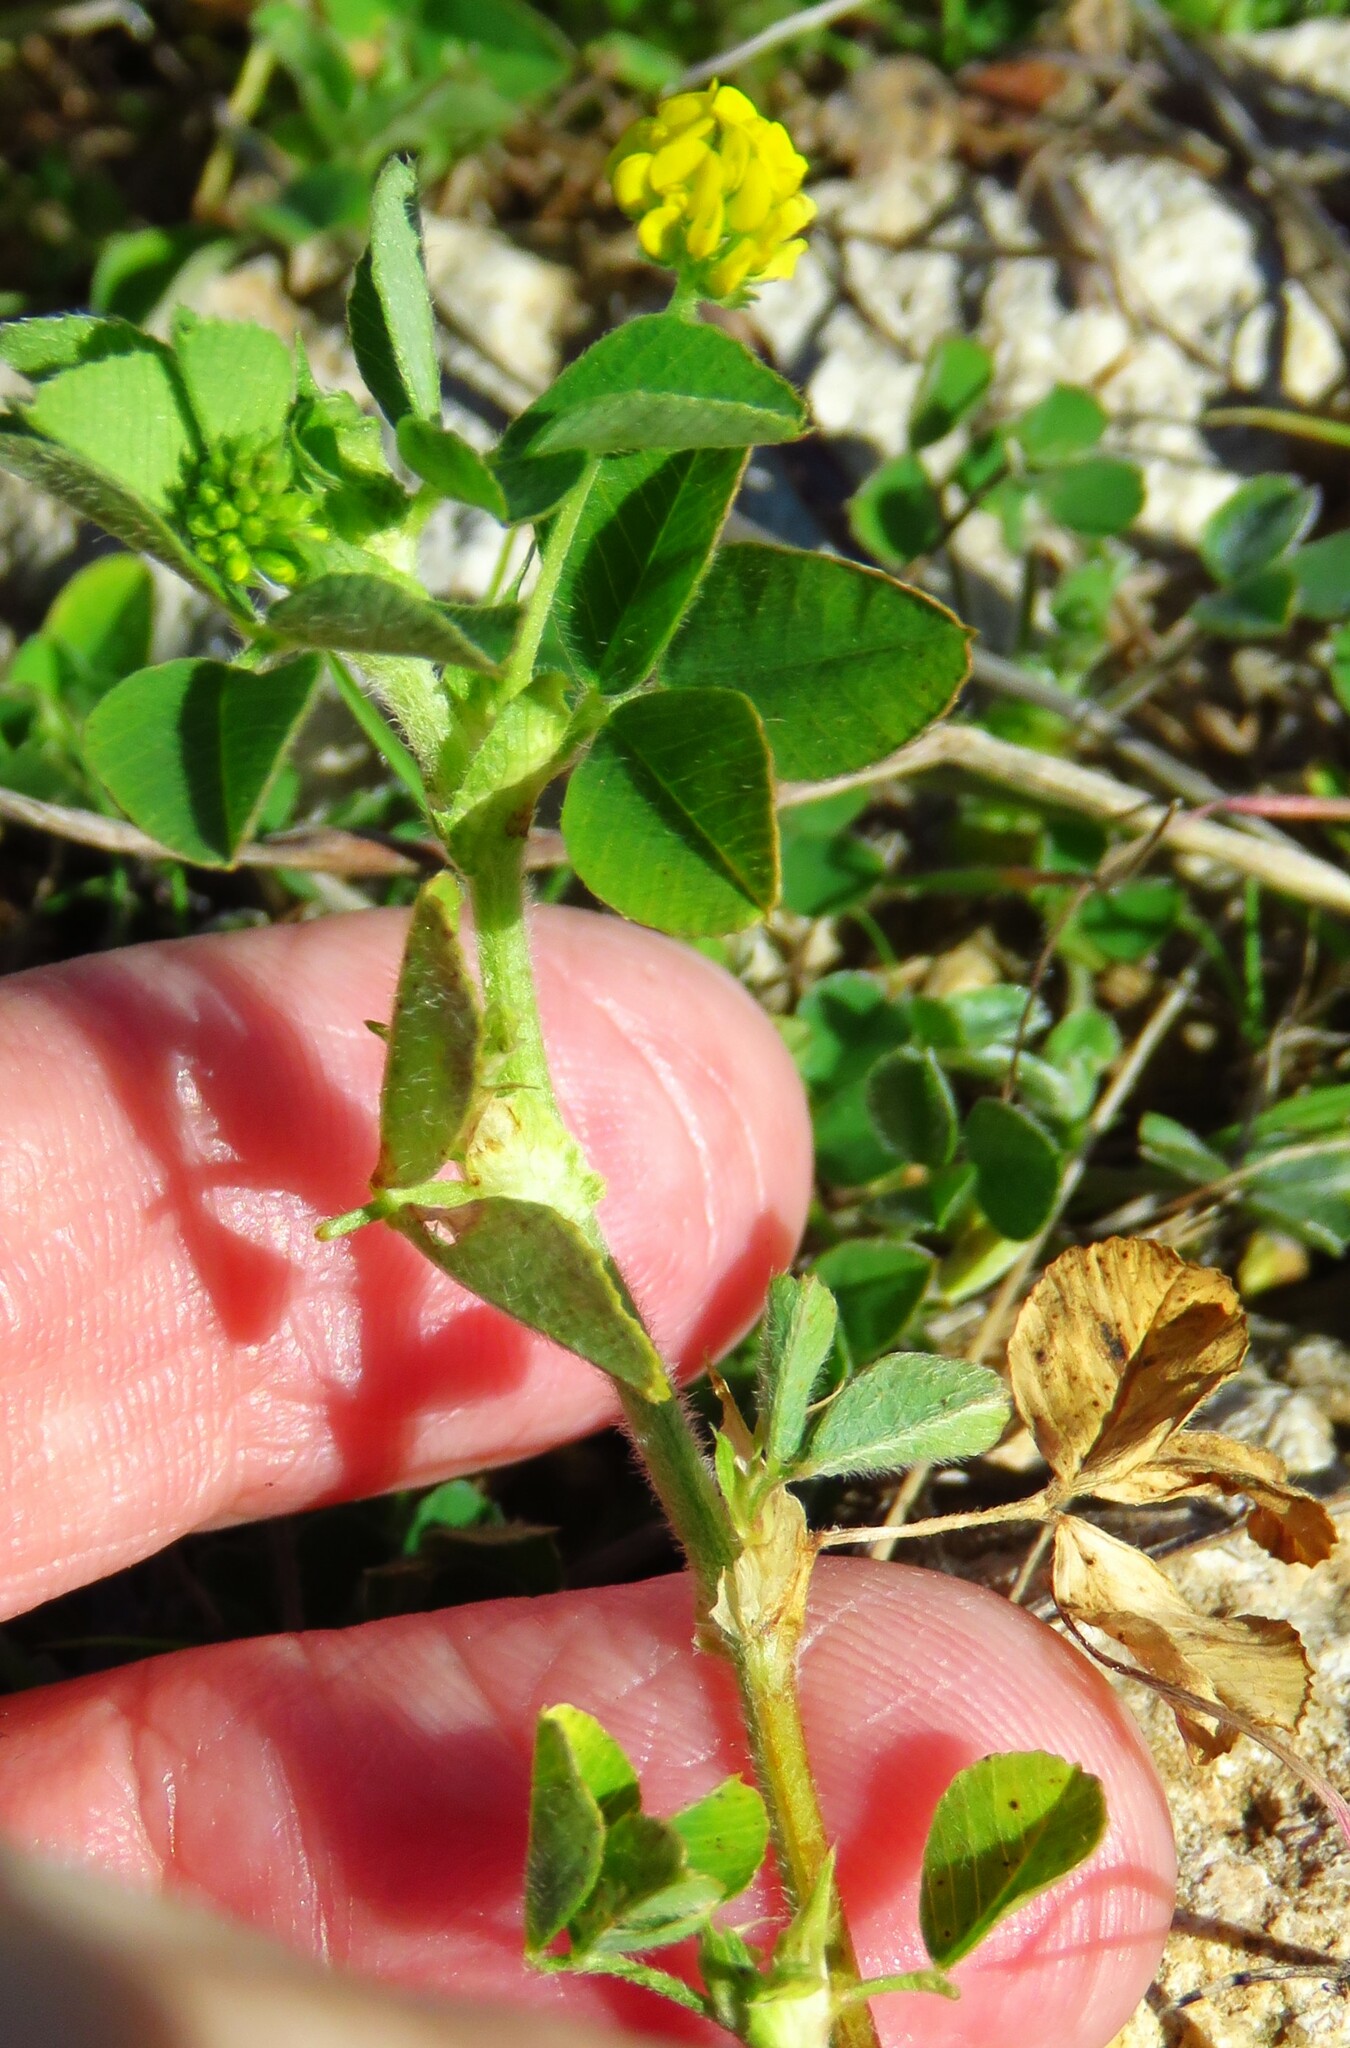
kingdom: Plantae
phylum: Tracheophyta
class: Magnoliopsida
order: Fabales
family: Fabaceae
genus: Medicago
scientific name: Medicago lupulina
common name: Black medick
